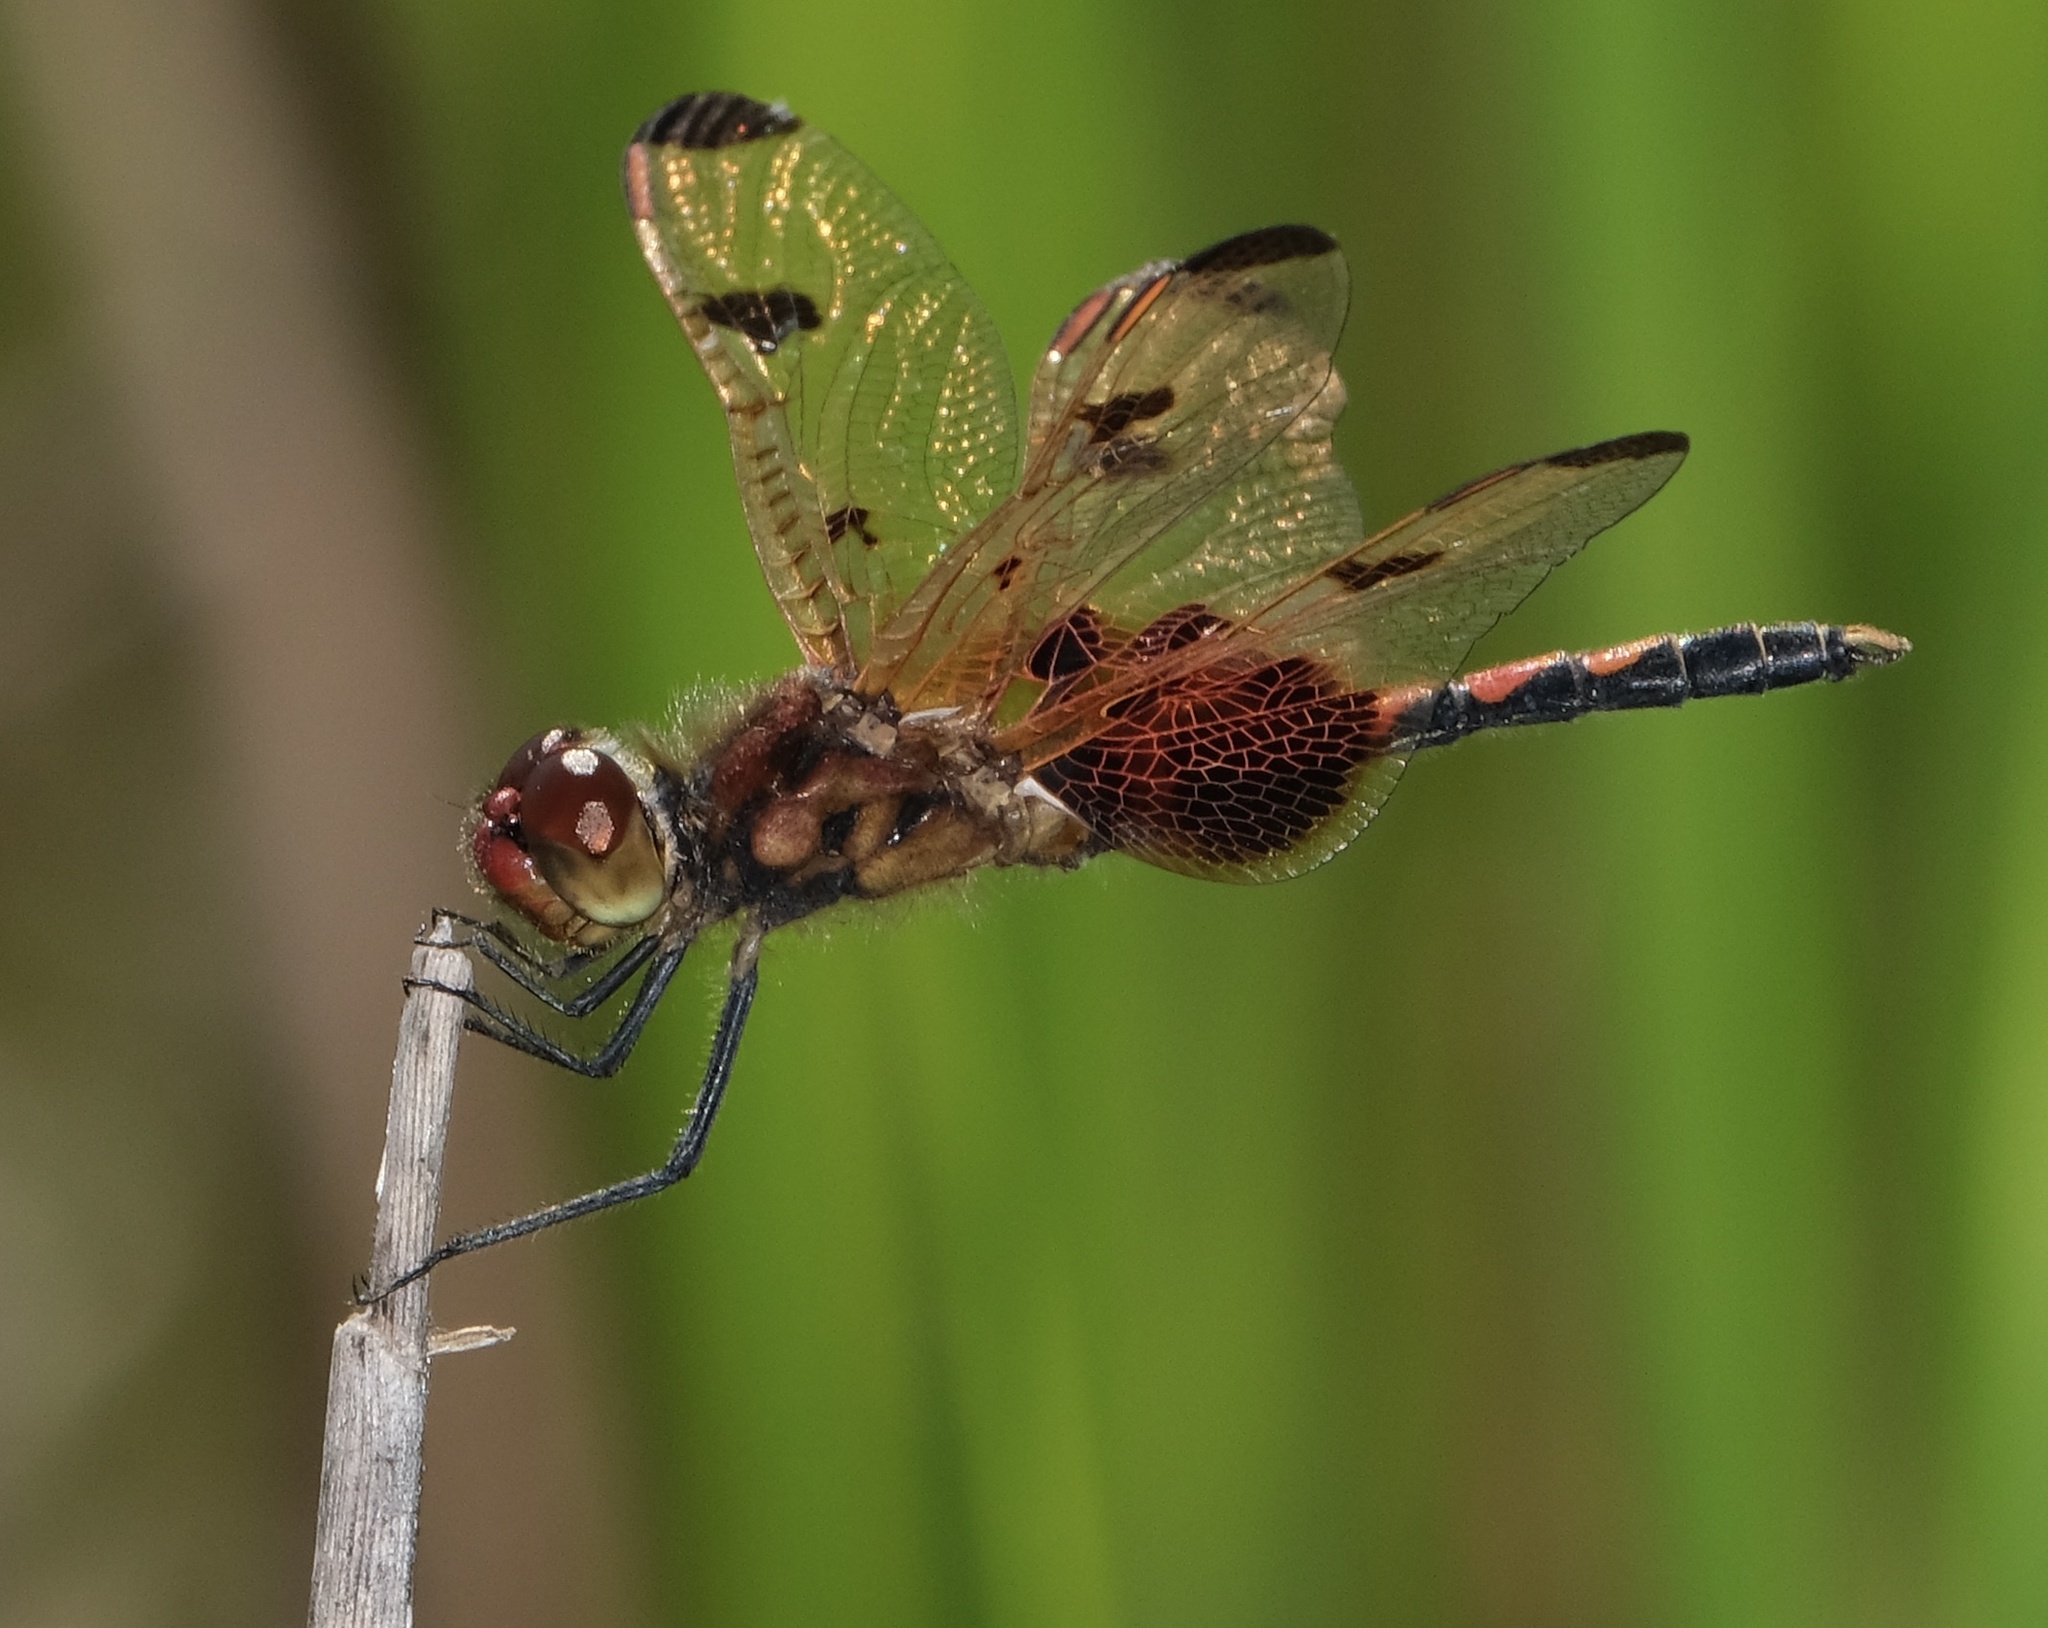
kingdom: Animalia
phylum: Arthropoda
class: Insecta
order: Odonata
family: Libellulidae
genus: Celithemis
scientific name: Celithemis elisa
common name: Calico pennant
